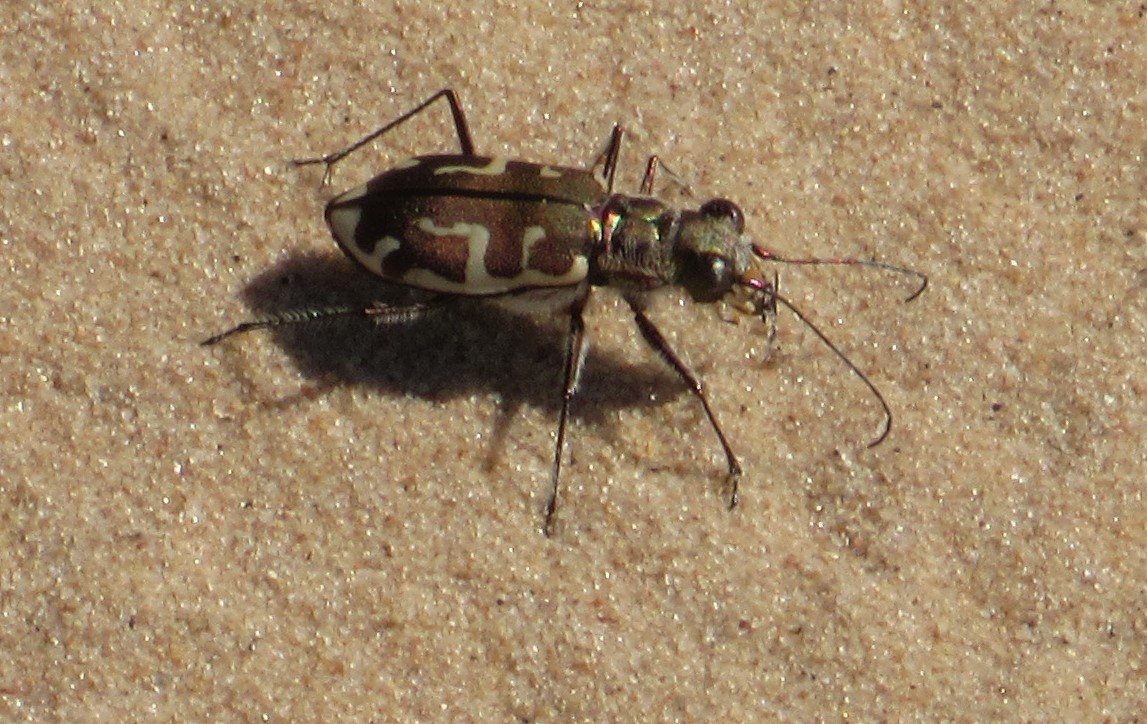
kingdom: Animalia
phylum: Arthropoda
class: Insecta
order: Coleoptera
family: Carabidae
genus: Cicindela
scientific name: Cicindela hirticollis
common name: Hairy-necked tiger beetle
